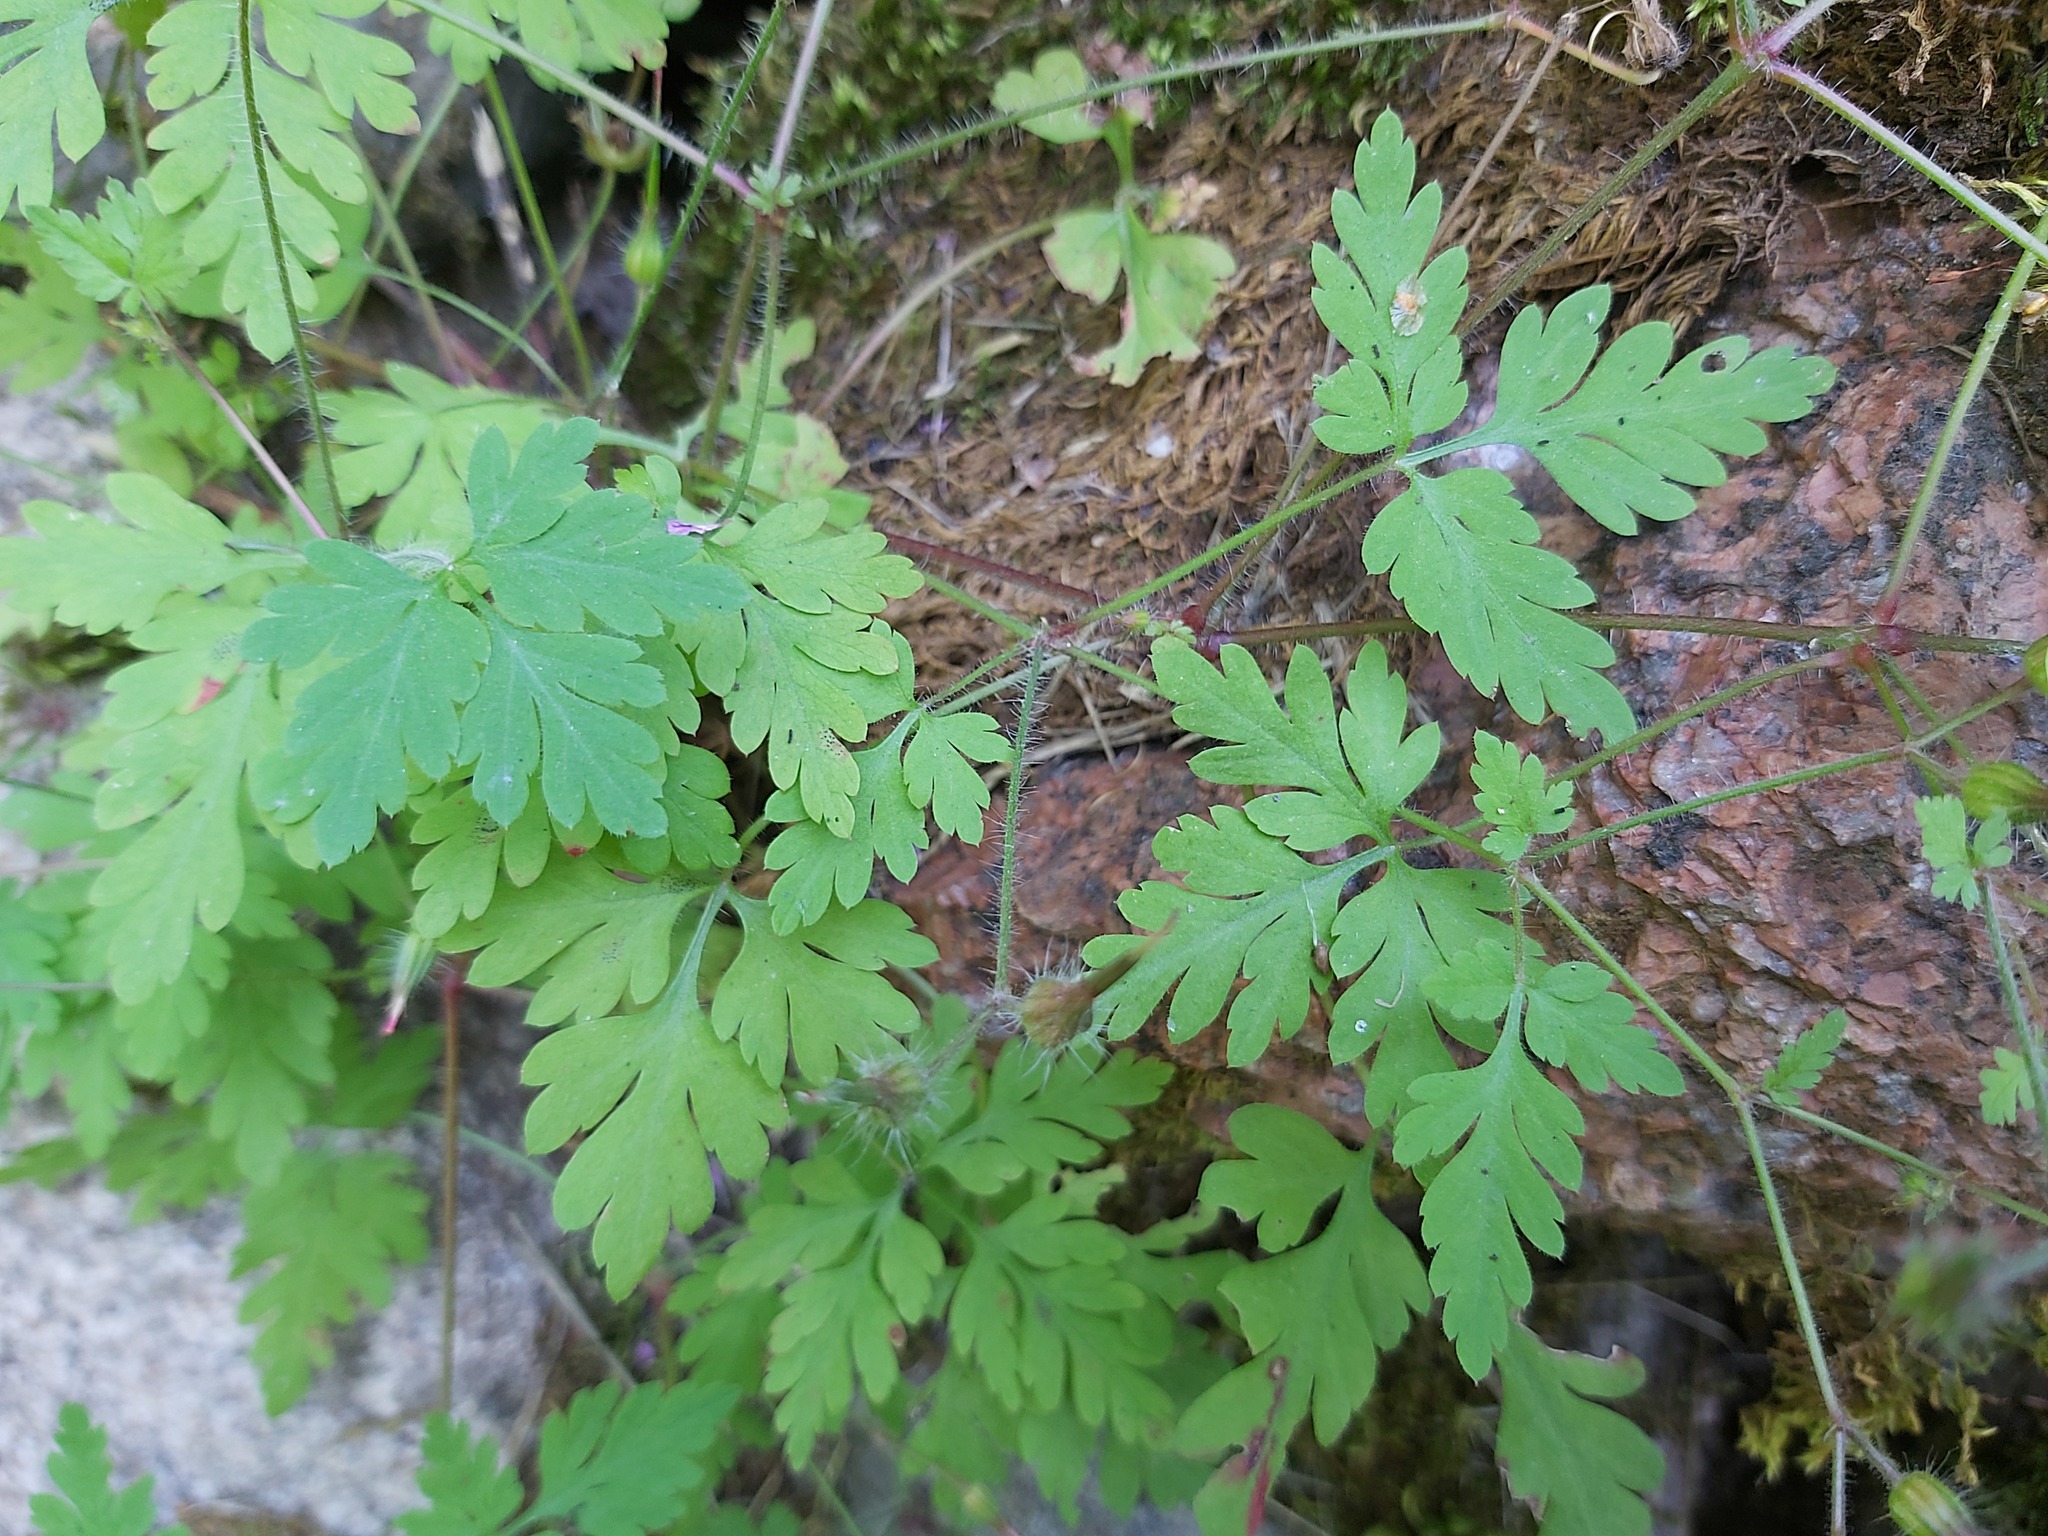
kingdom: Plantae
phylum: Tracheophyta
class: Magnoliopsida
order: Geraniales
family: Geraniaceae
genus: Geranium
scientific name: Geranium robertianum
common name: Herb-robert
